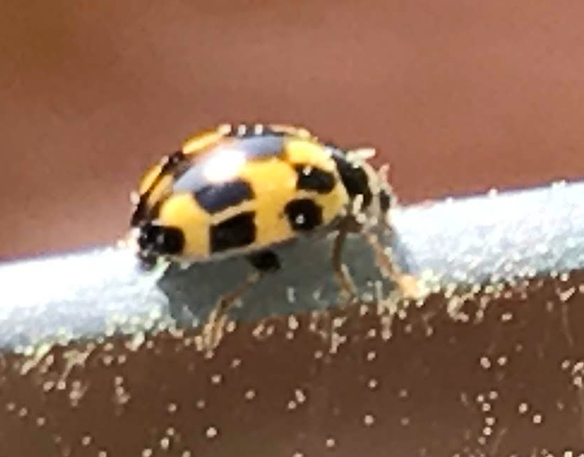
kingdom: Animalia
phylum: Arthropoda
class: Insecta
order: Coleoptera
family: Coccinellidae
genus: Propylaea
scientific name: Propylaea quatuordecimpunctata
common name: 14-spotted ladybird beetle
